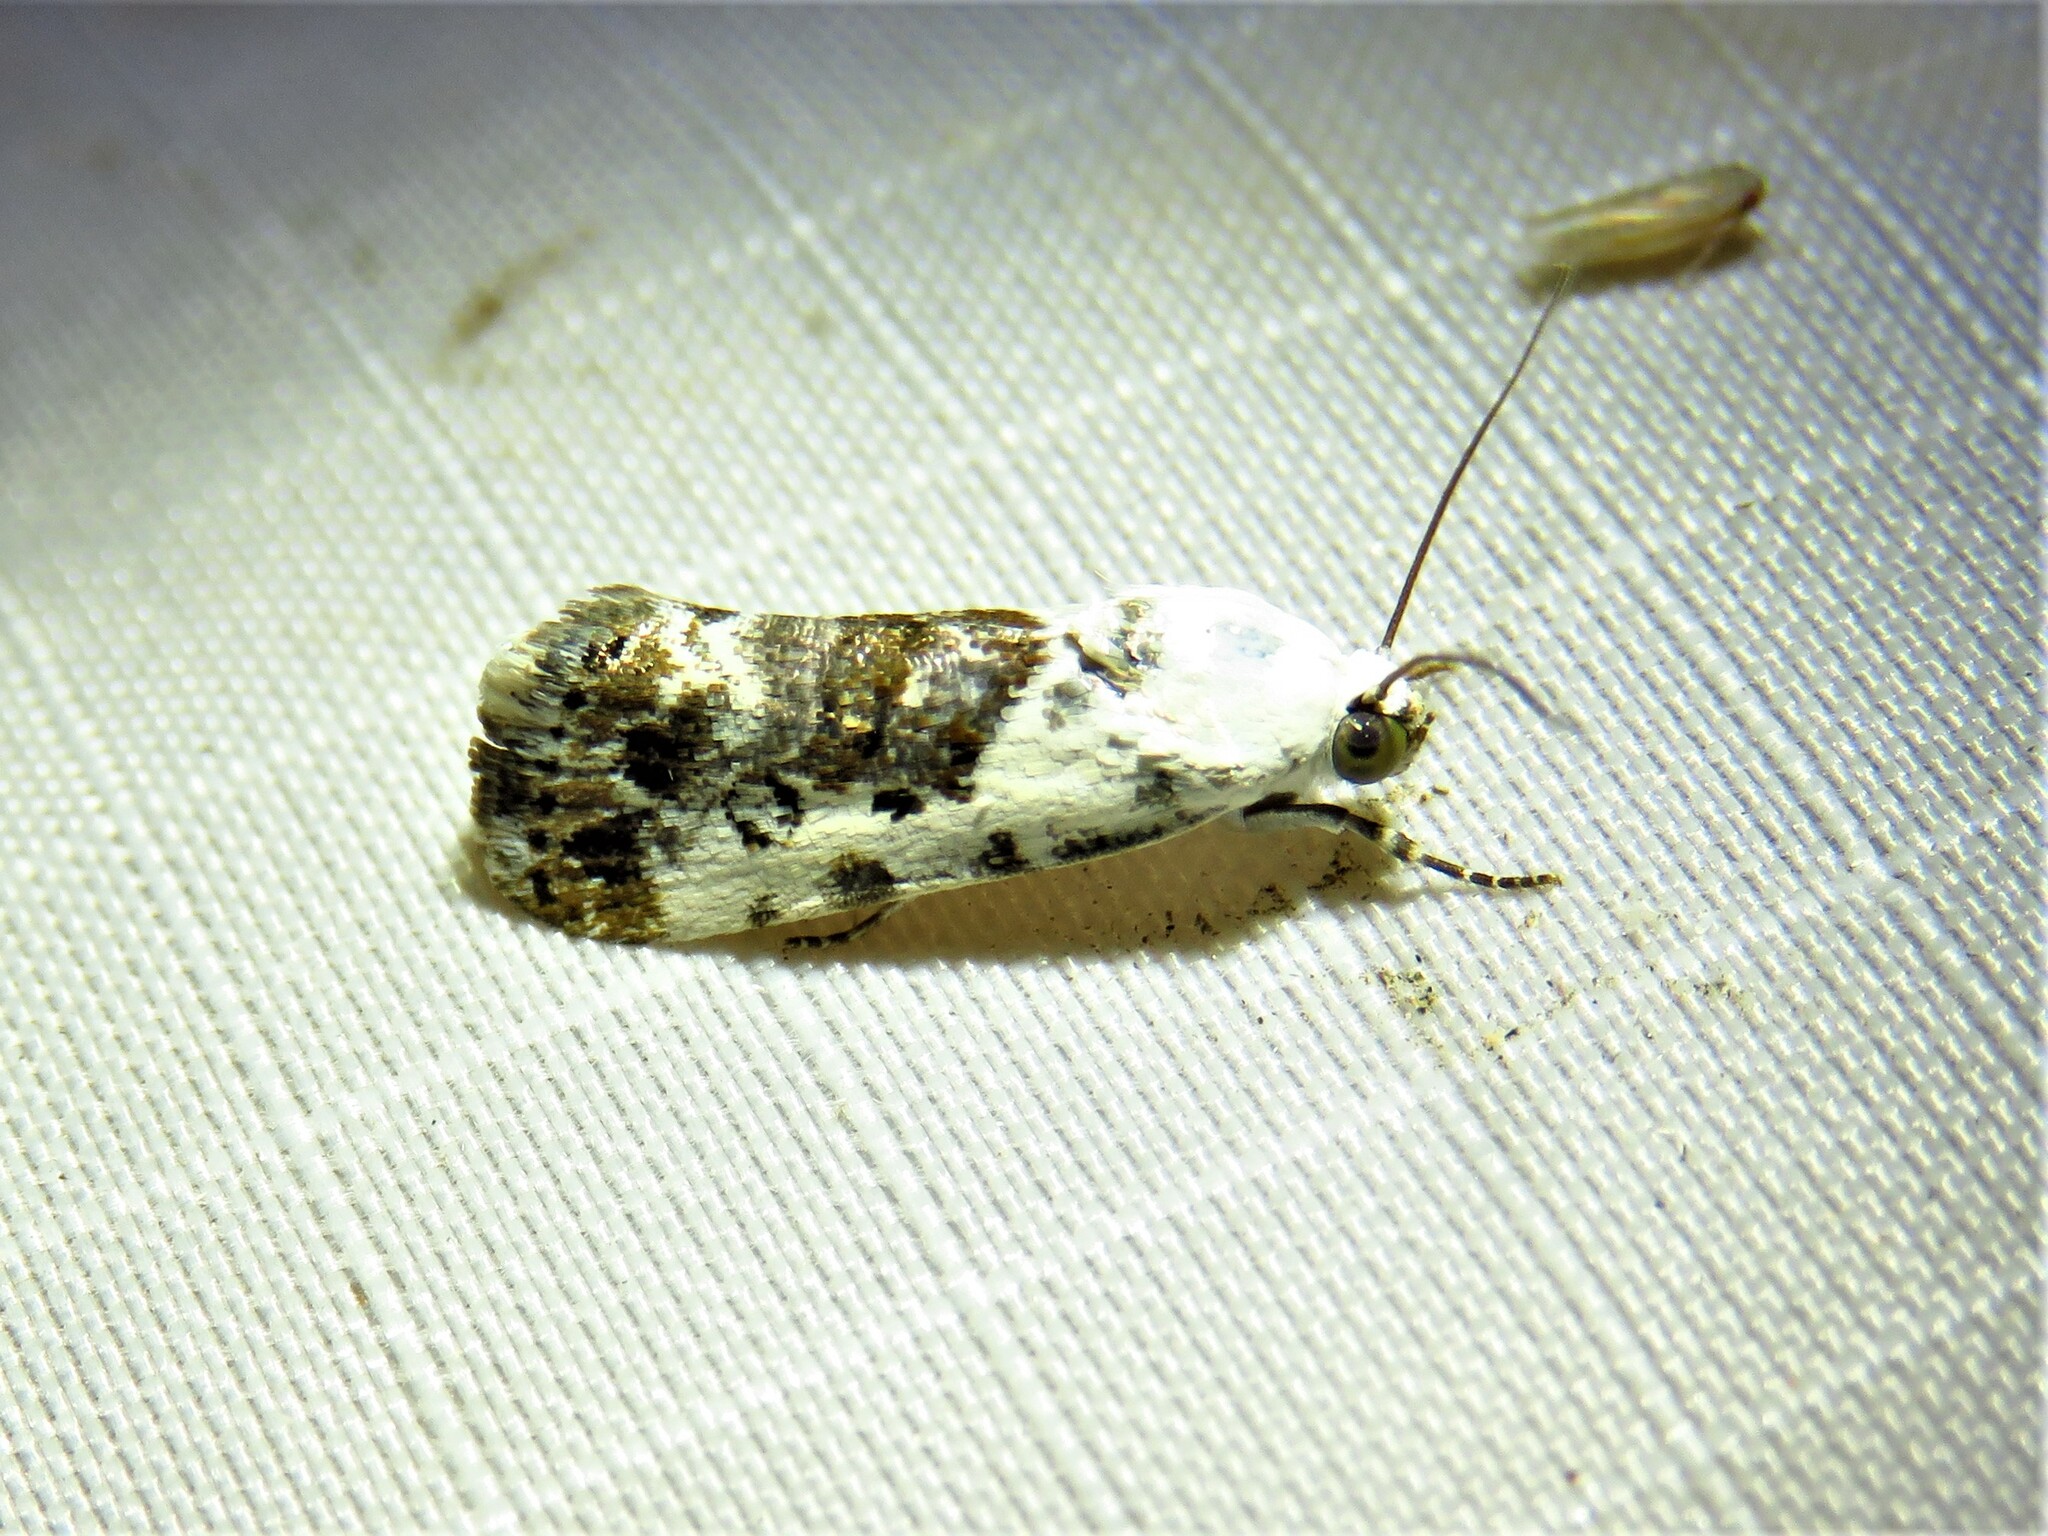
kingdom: Animalia
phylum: Arthropoda
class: Insecta
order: Lepidoptera
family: Noctuidae
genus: Acontia
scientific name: Acontia phecolisca
